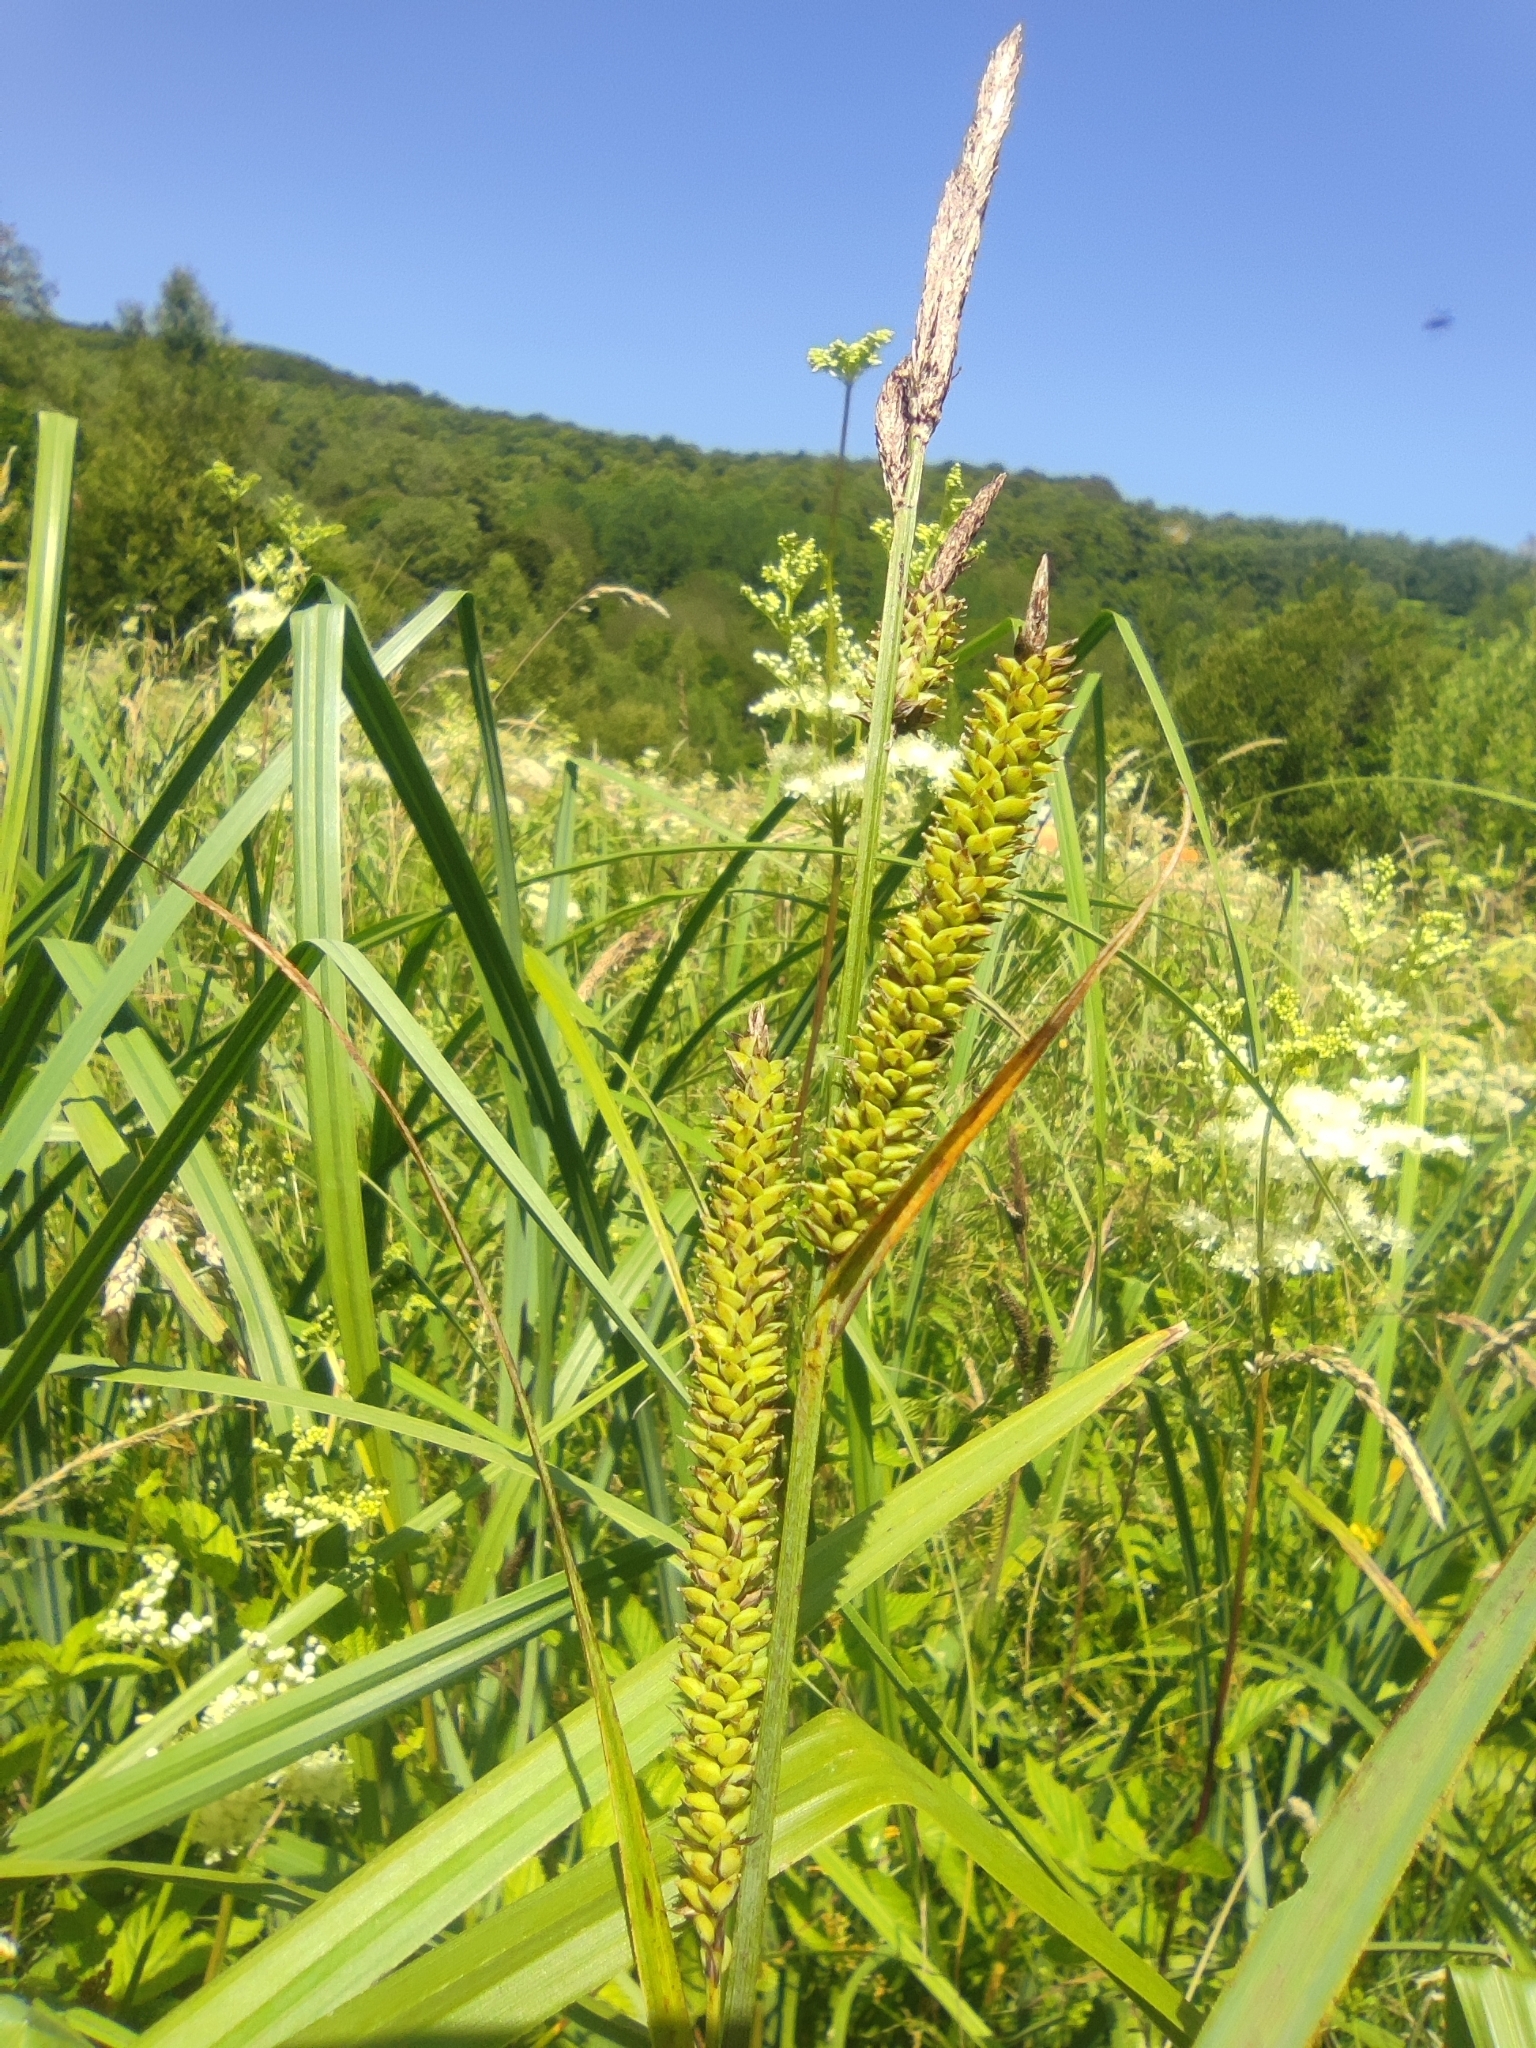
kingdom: Plantae
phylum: Tracheophyta
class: Liliopsida
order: Poales
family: Cyperaceae
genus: Carex
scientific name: Carex acutiformis
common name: Lesser pond-sedge
